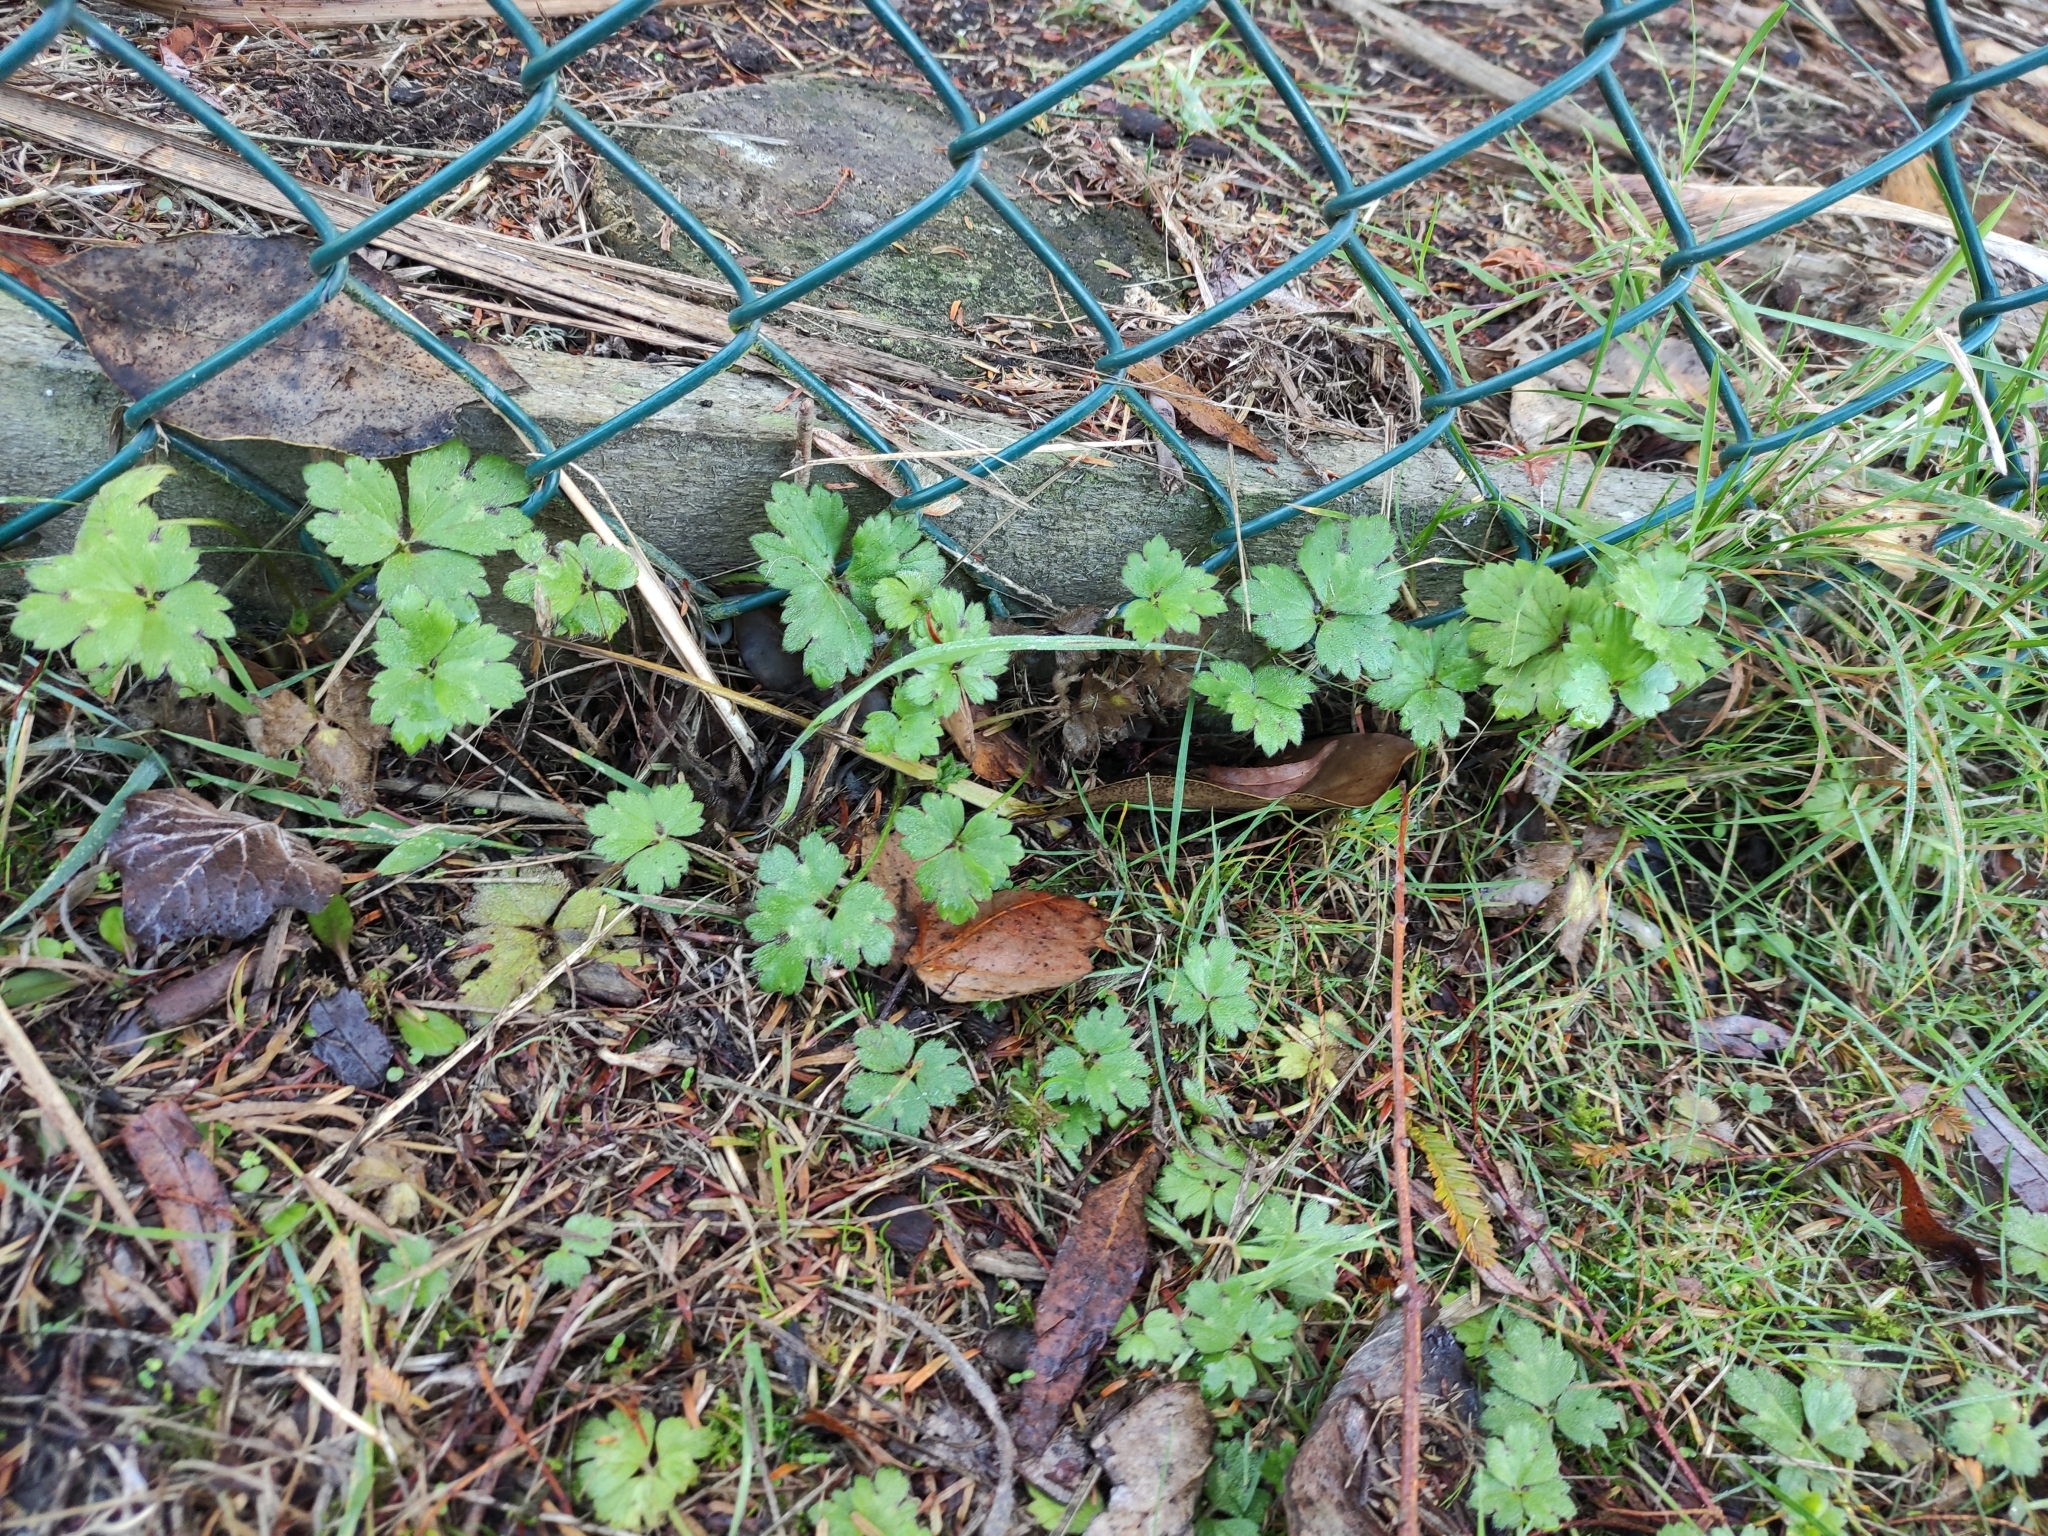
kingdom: Plantae
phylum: Tracheophyta
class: Magnoliopsida
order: Ranunculales
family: Ranunculaceae
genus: Ranunculus
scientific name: Ranunculus repens
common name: Creeping buttercup
